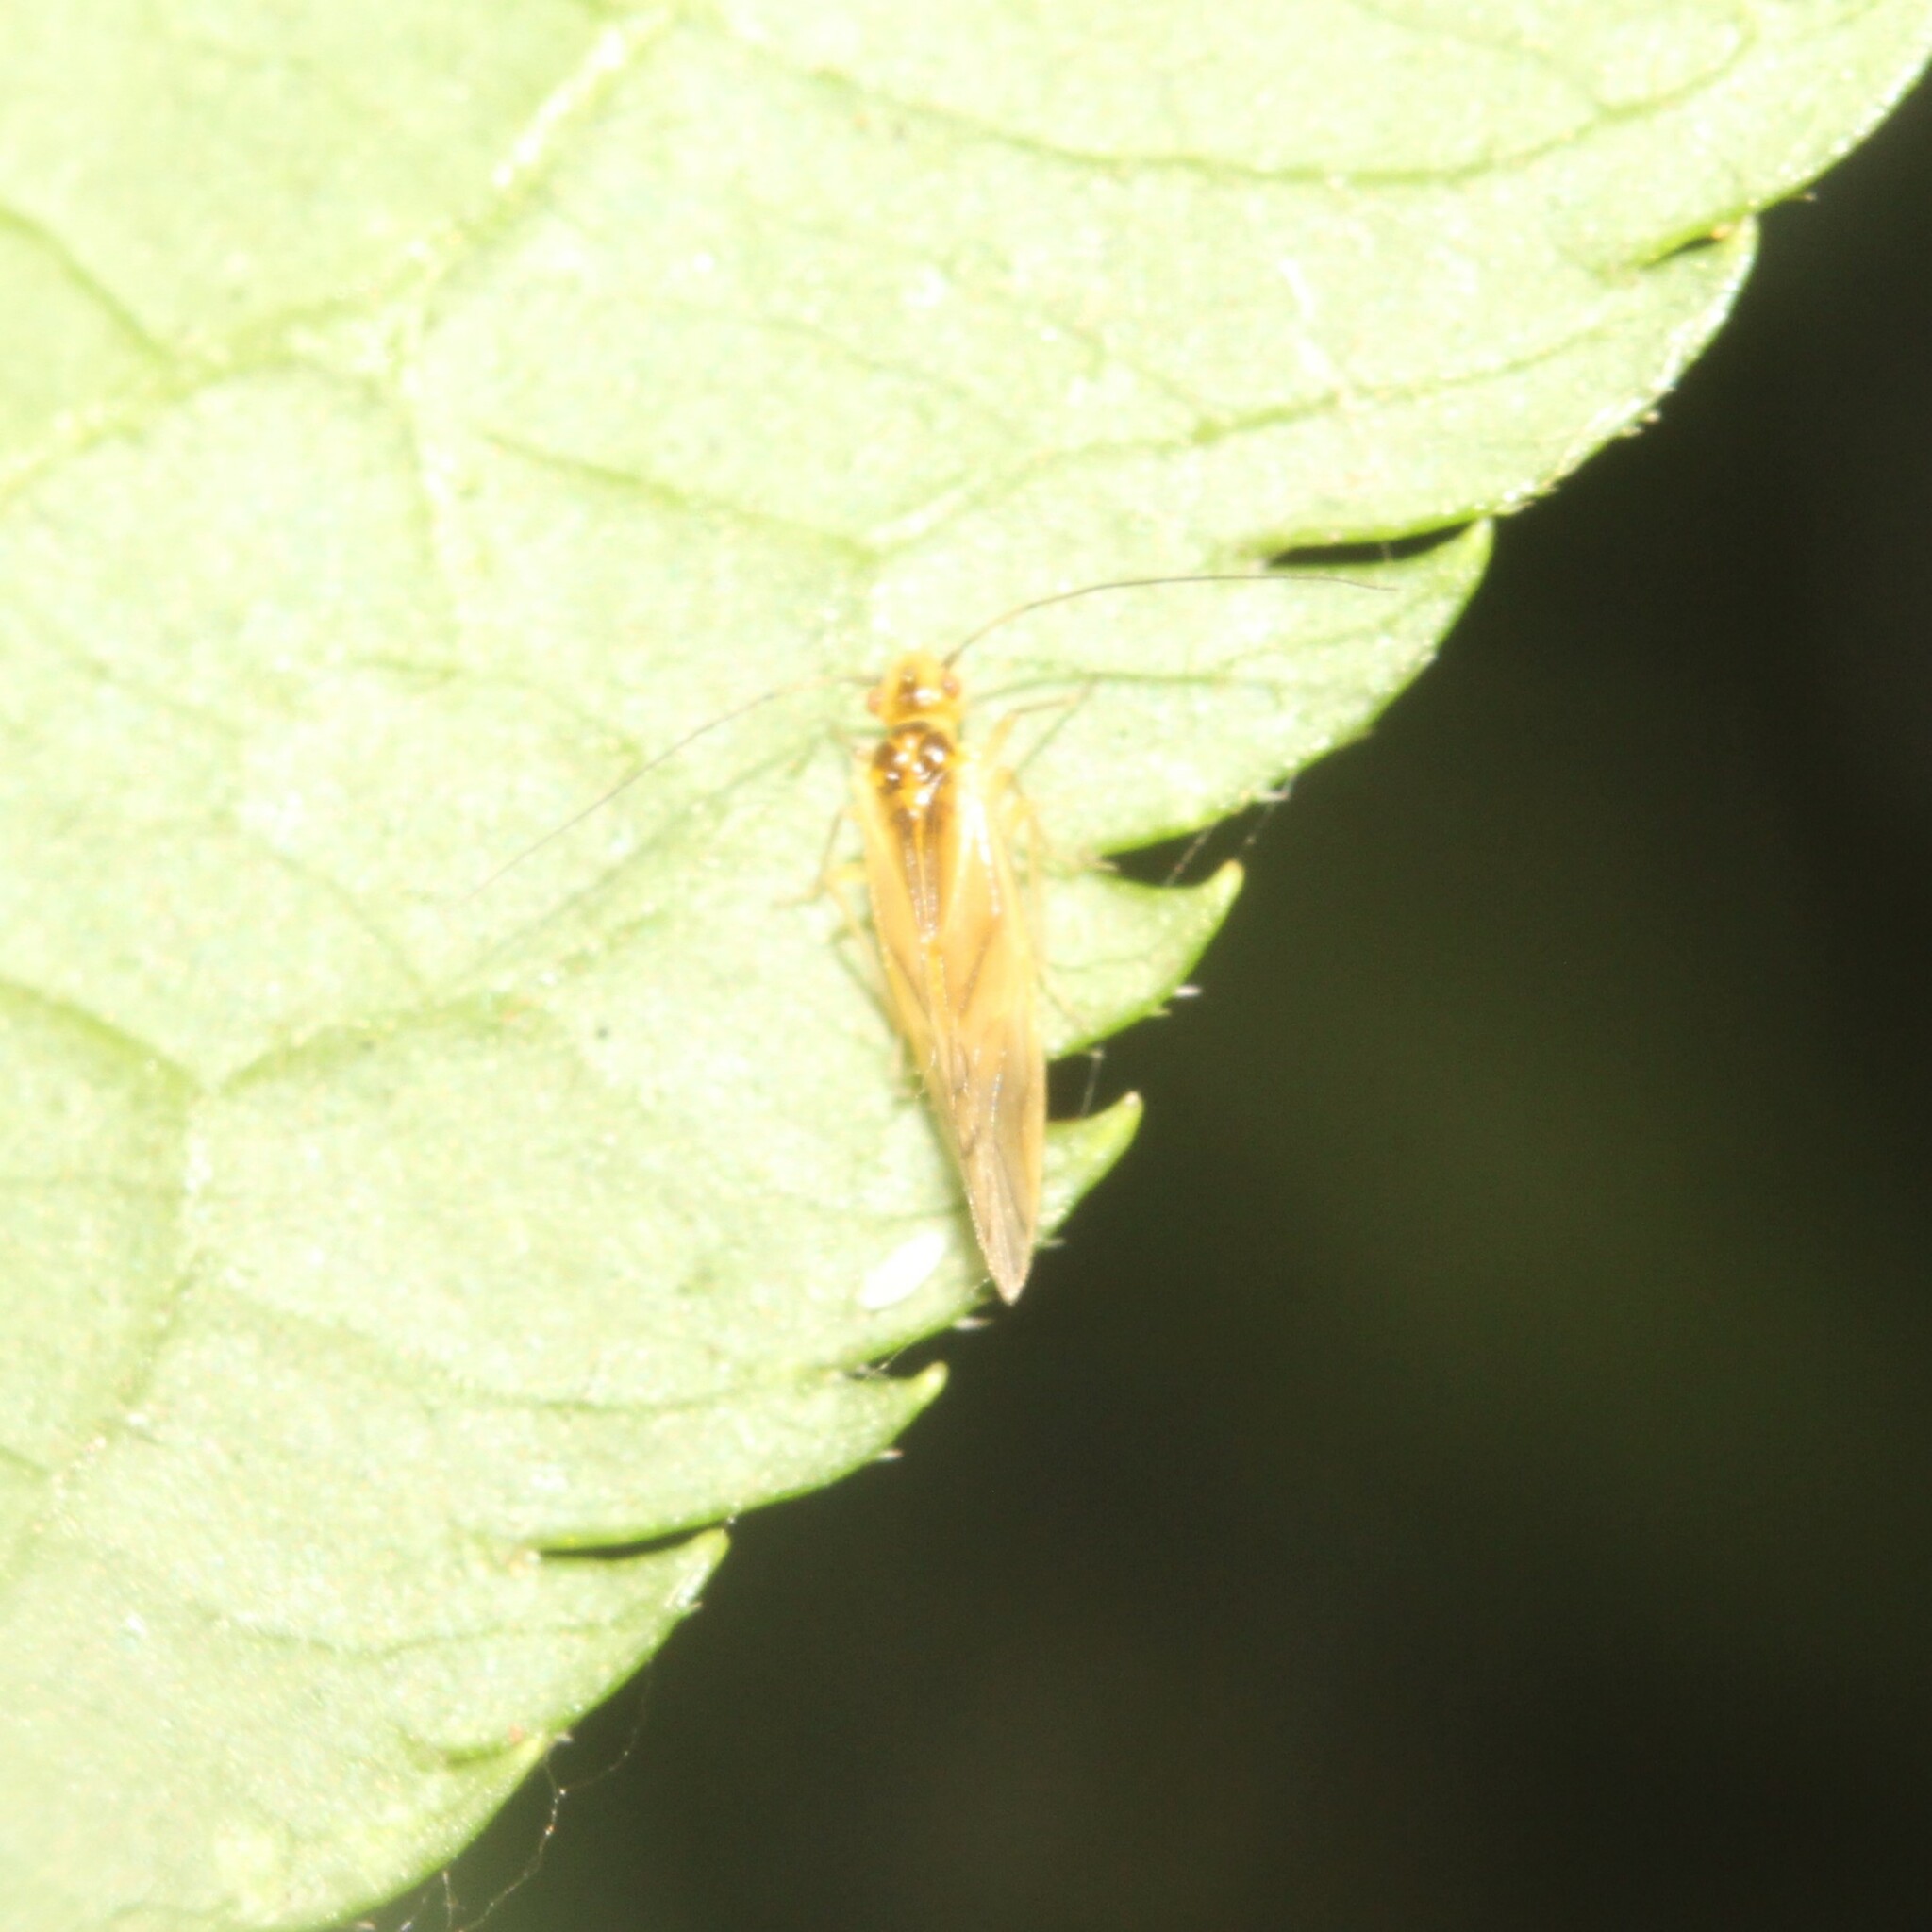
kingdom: Animalia
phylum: Arthropoda
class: Insecta
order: Psocodea
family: Caeciliusidae
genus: Valenzuela
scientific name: Valenzuela flavidus
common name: Yellow barklouse
